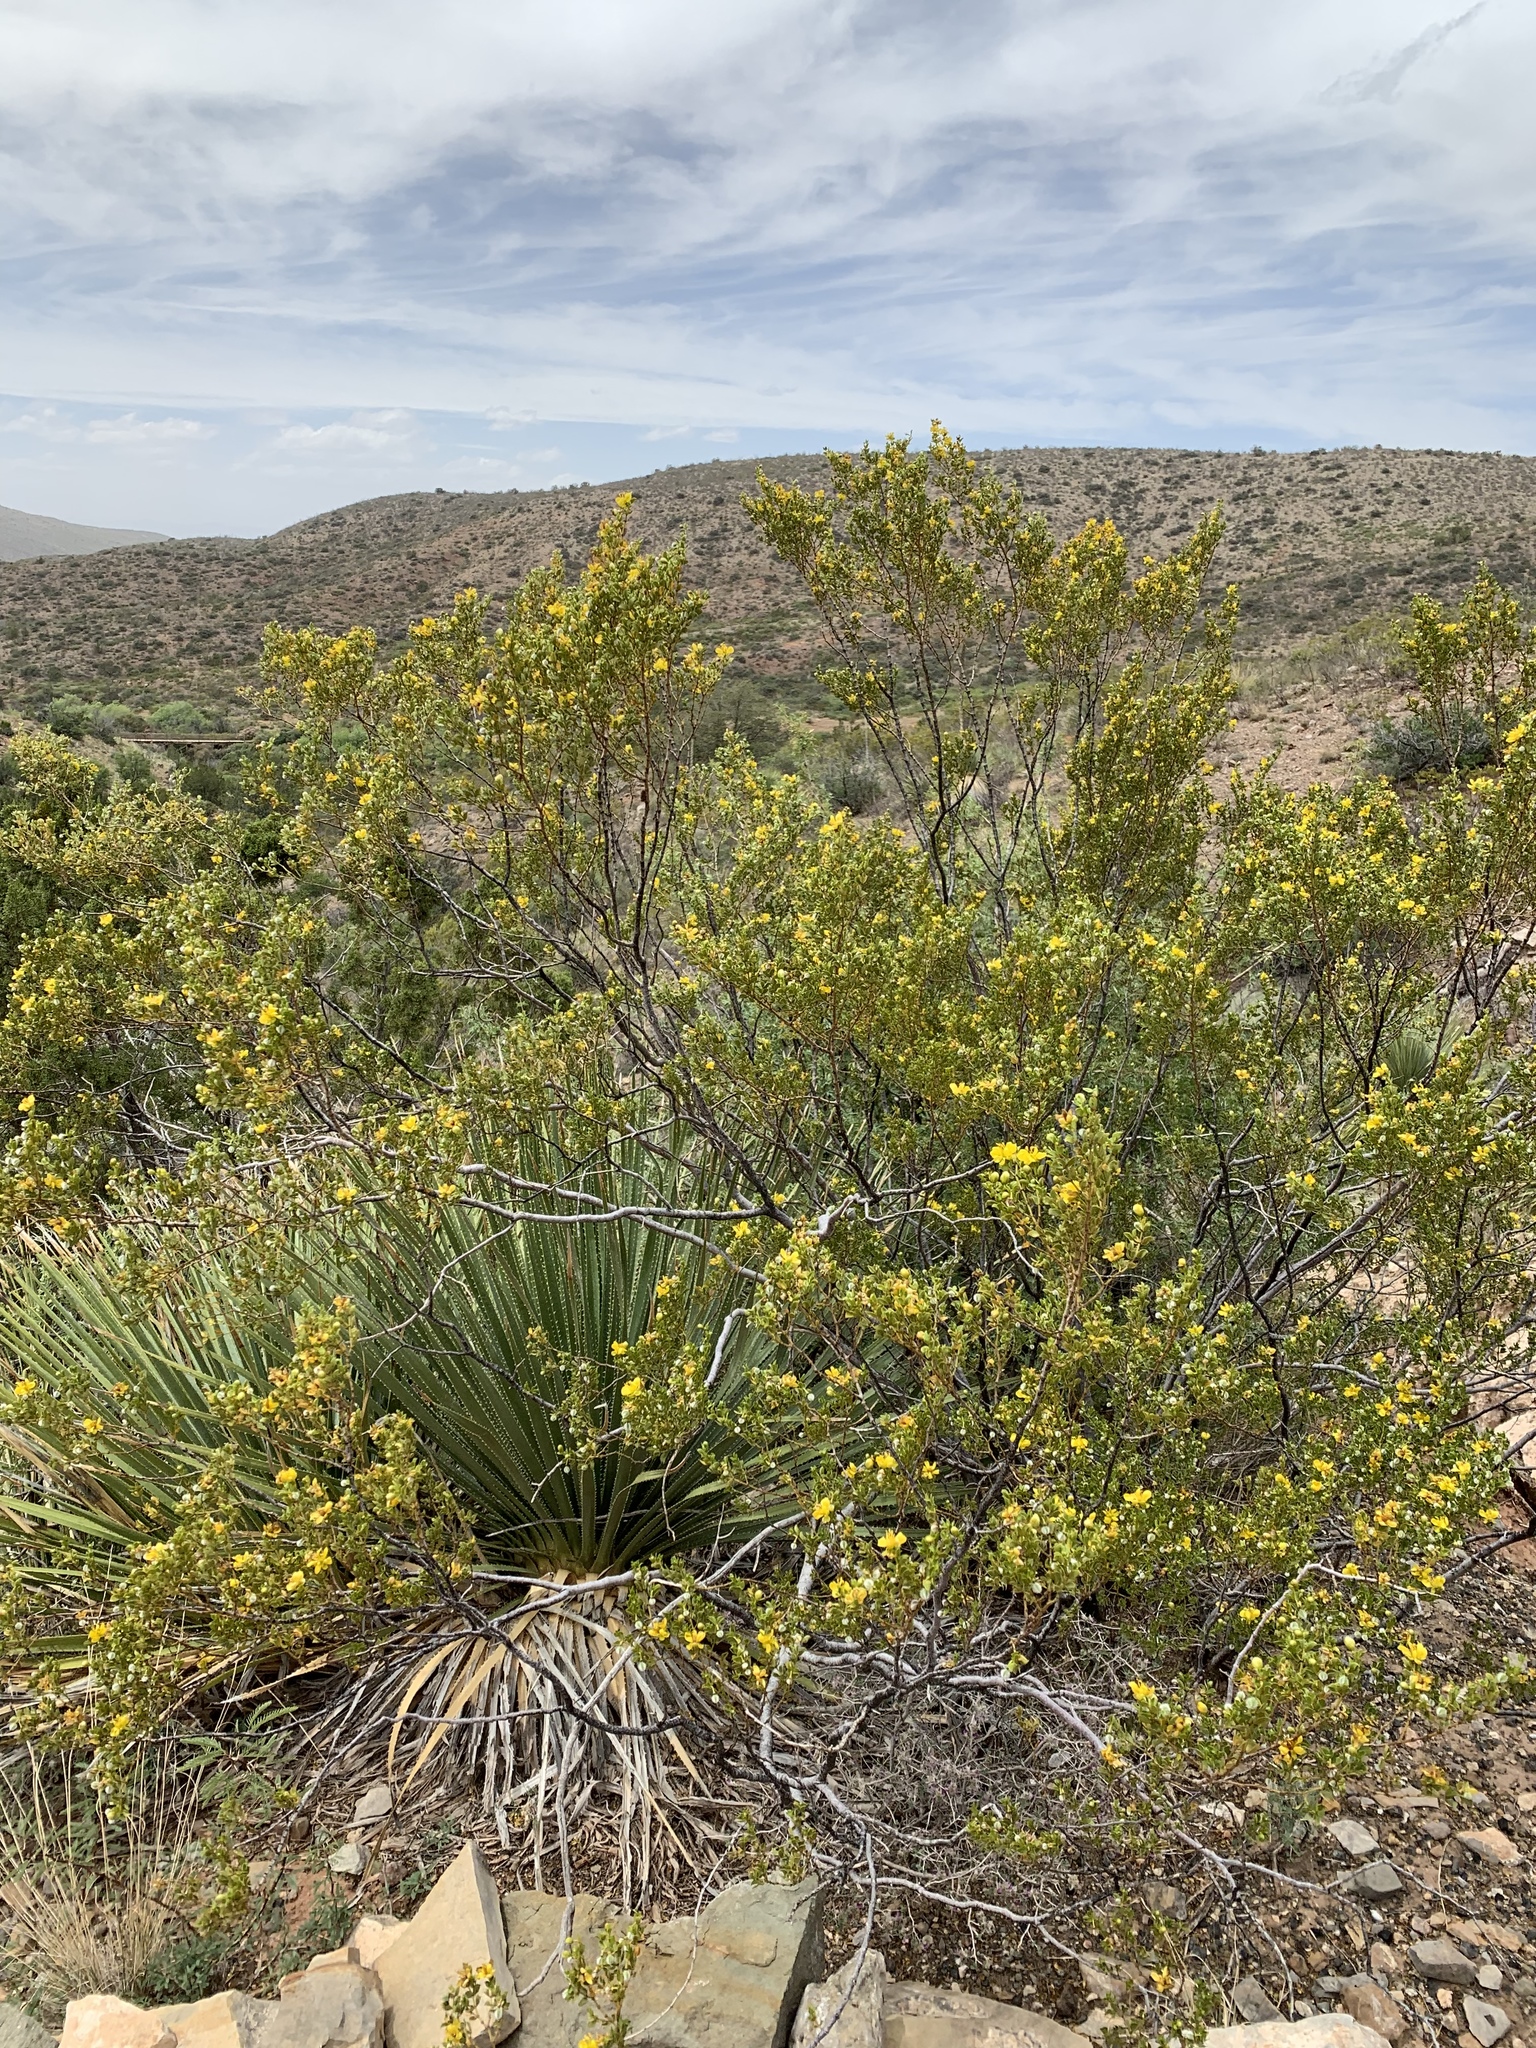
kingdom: Plantae
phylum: Tracheophyta
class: Magnoliopsida
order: Zygophyllales
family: Zygophyllaceae
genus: Larrea
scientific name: Larrea tridentata
